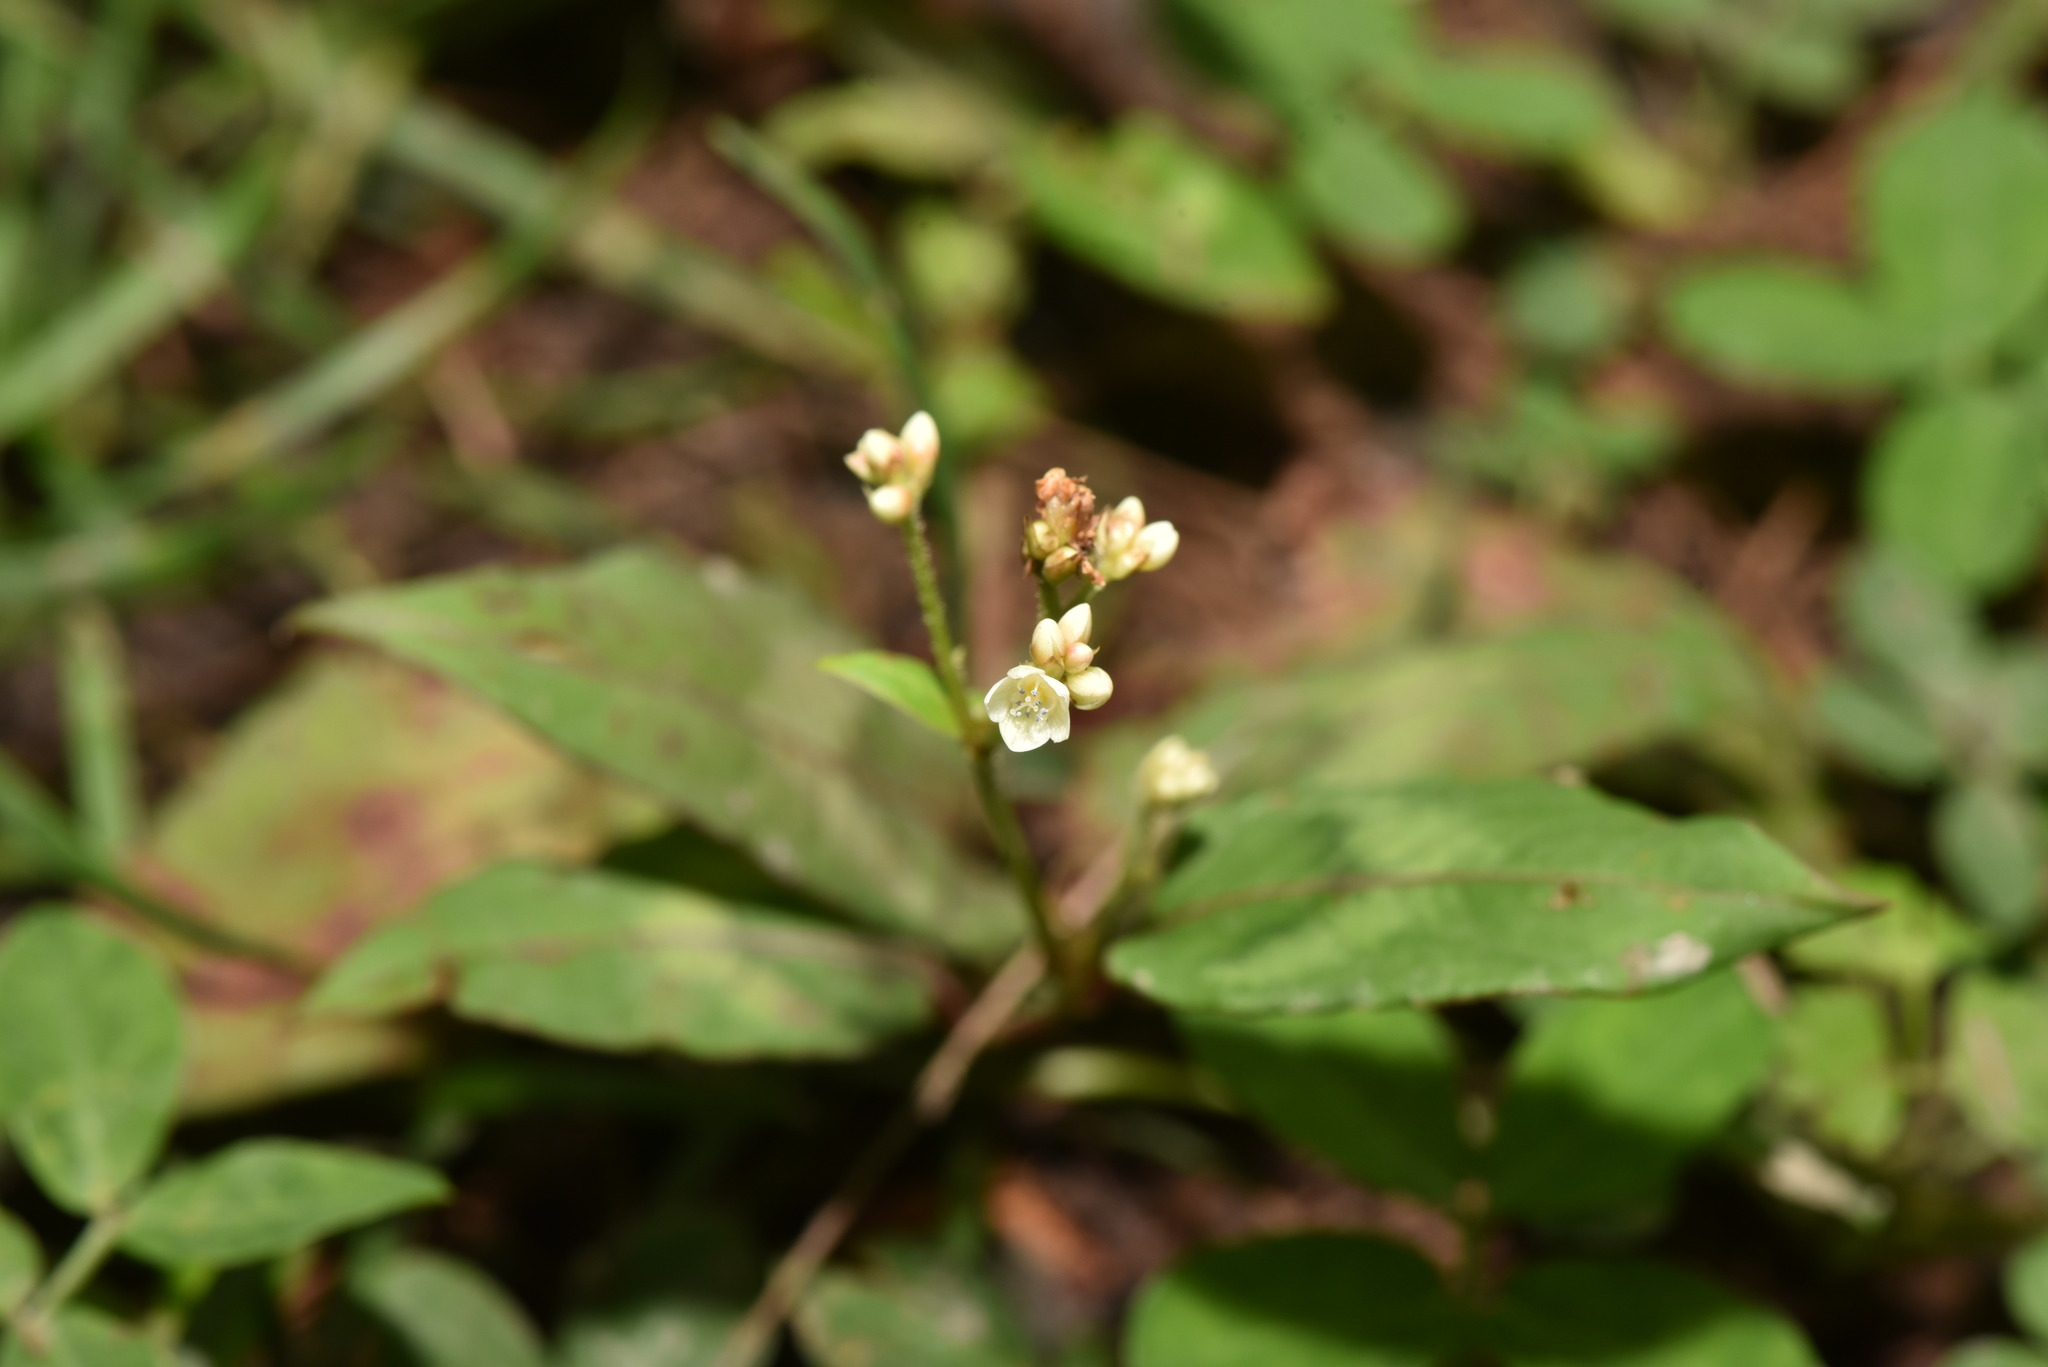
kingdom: Plantae
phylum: Tracheophyta
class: Magnoliopsida
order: Caryophyllales
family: Polygonaceae
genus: Persicaria
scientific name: Persicaria chinensis
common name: Chinese knotweed
